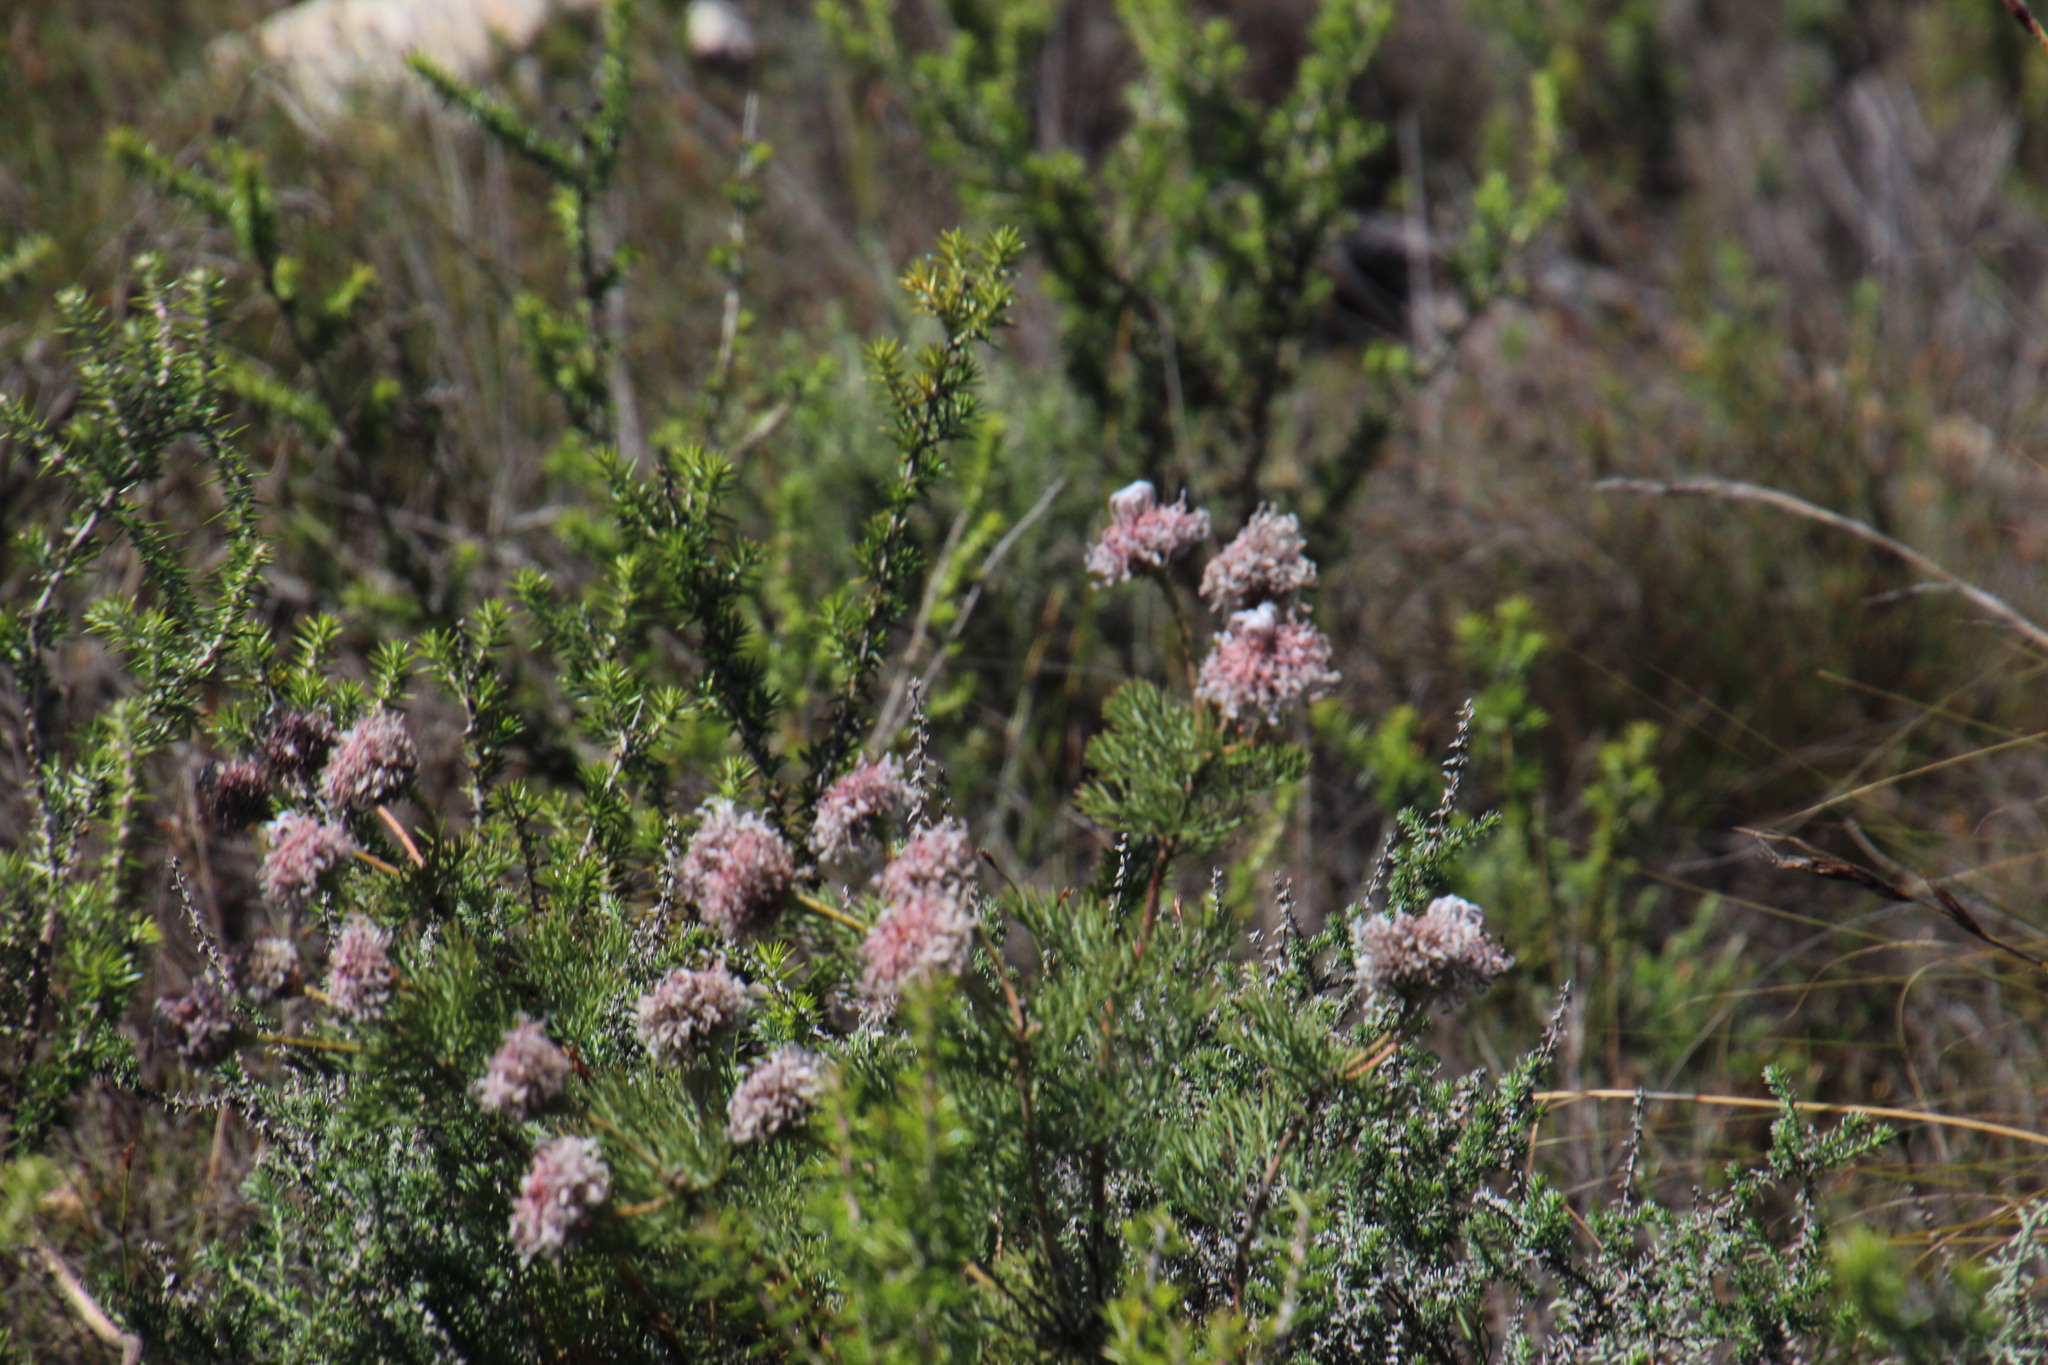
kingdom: Plantae
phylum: Tracheophyta
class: Magnoliopsida
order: Proteales
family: Proteaceae
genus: Serruria
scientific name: Serruria pedunculata
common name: Fan-leaf spiderhead
